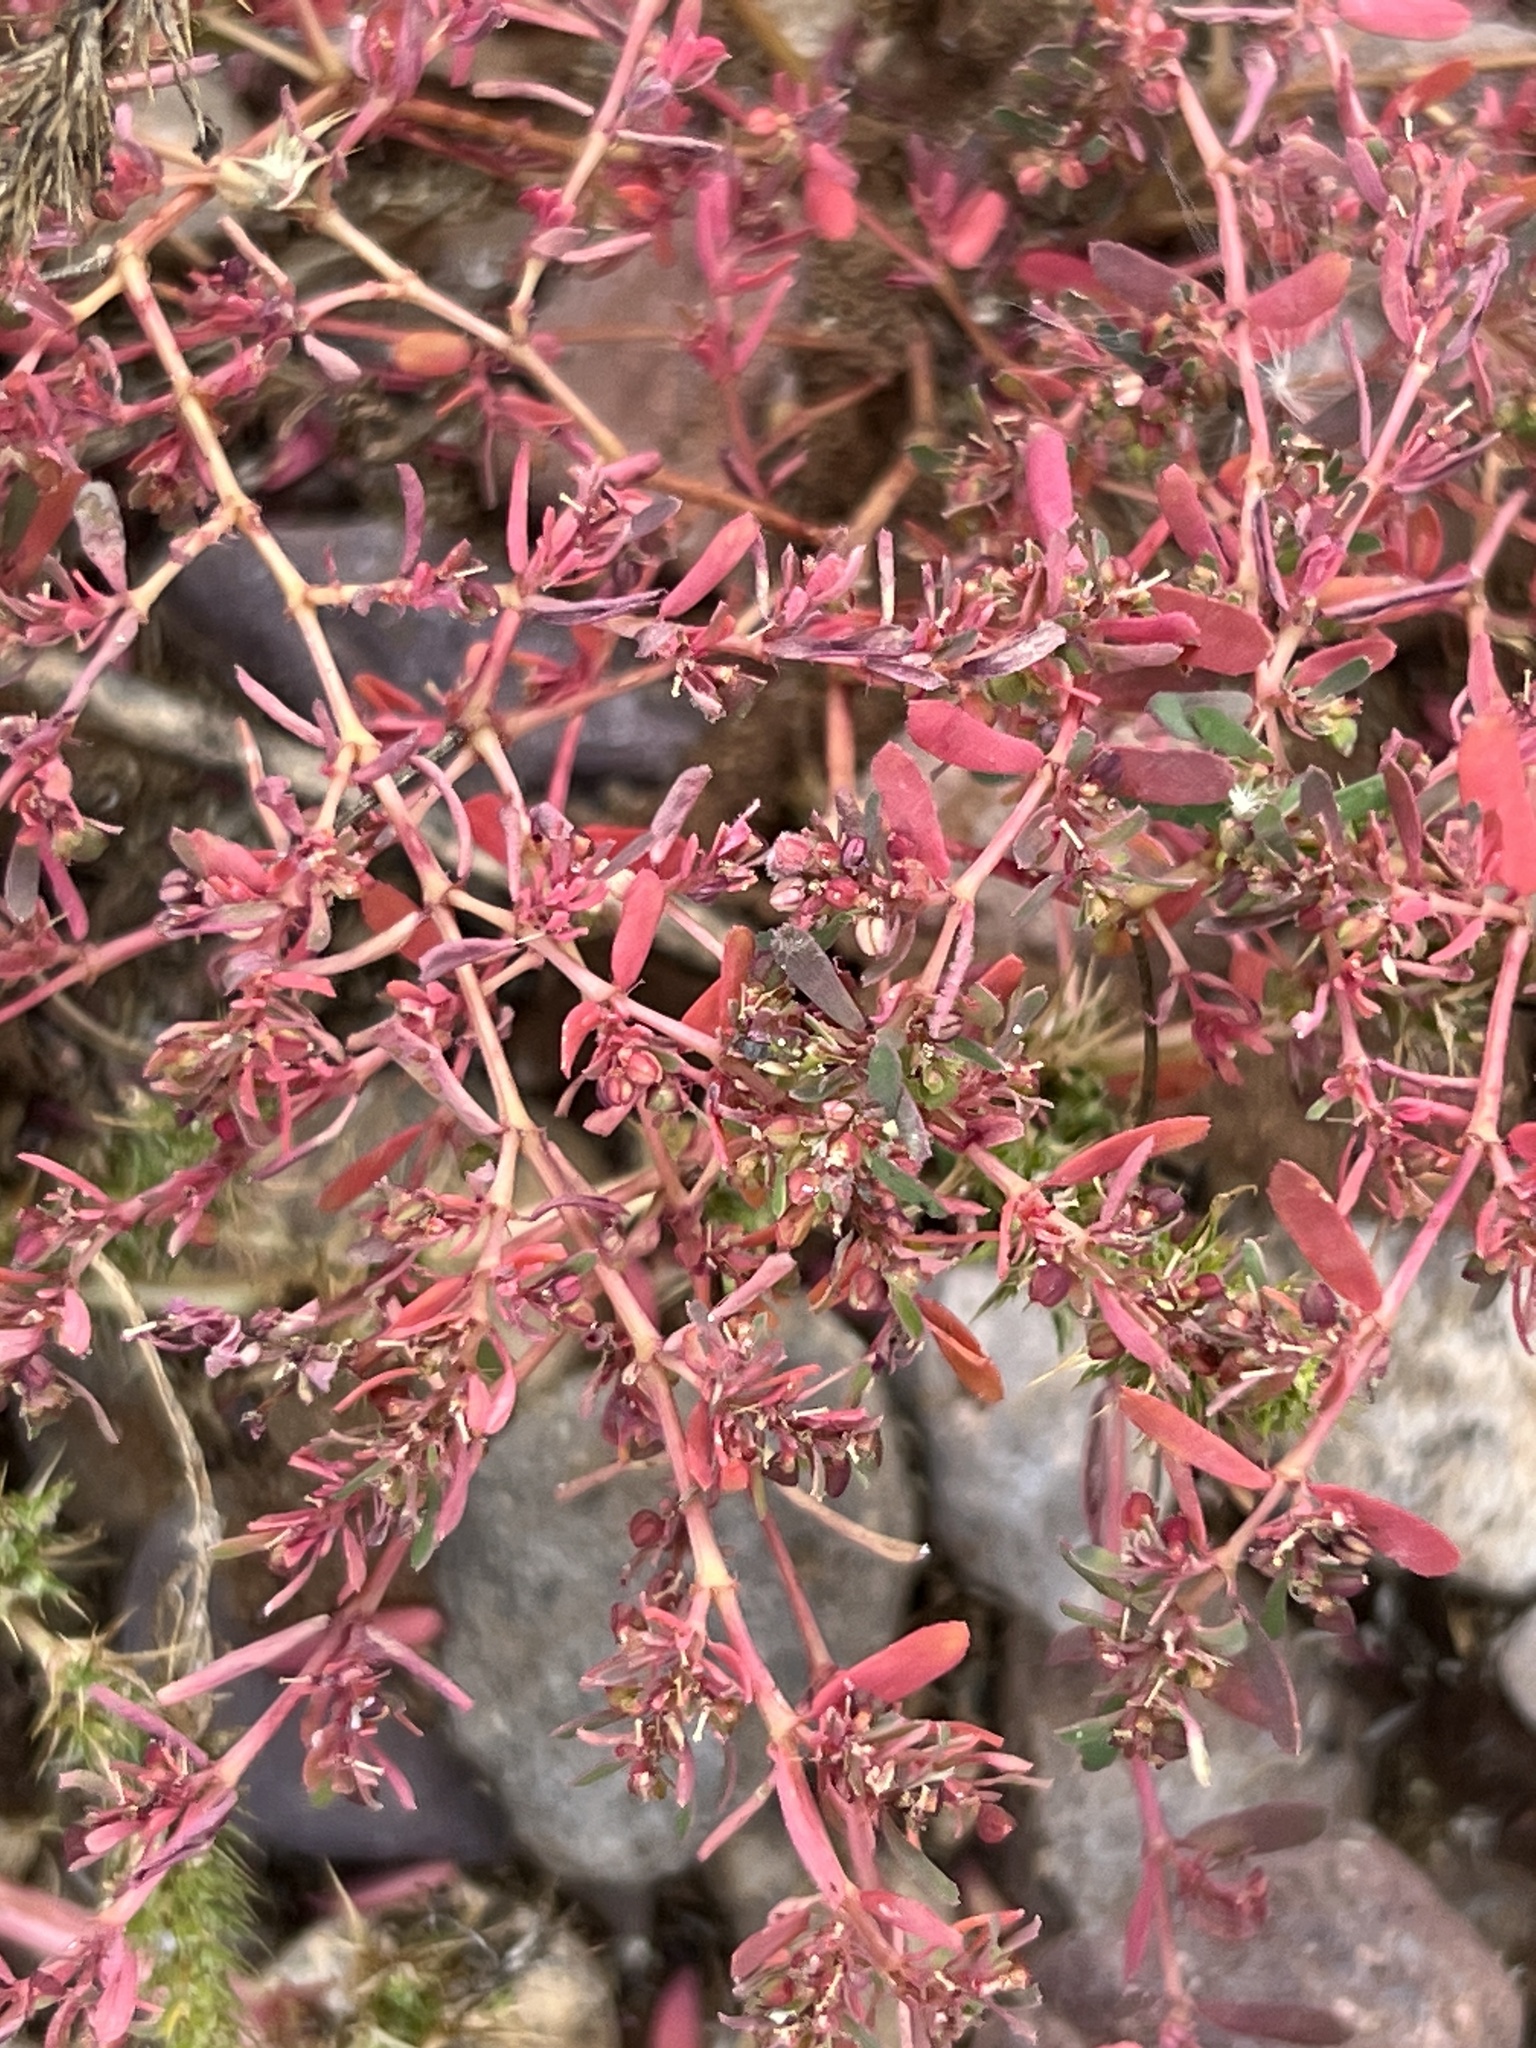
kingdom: Plantae
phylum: Tracheophyta
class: Magnoliopsida
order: Malpighiales
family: Euphorbiaceae
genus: Euphorbia
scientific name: Euphorbia serpillifolia
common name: Thyme-leaf spurge
